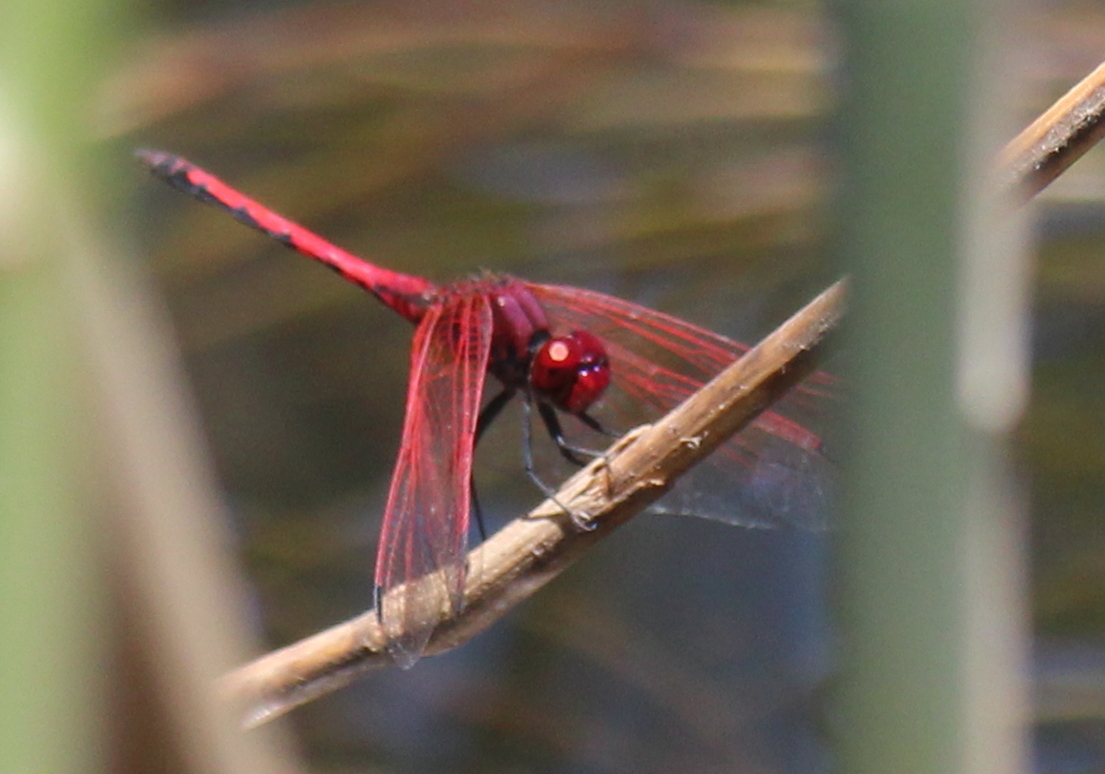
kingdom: Animalia
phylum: Arthropoda
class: Insecta
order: Odonata
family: Libellulidae
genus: Trithemis
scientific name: Trithemis arteriosa
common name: Red-veined dropwing
